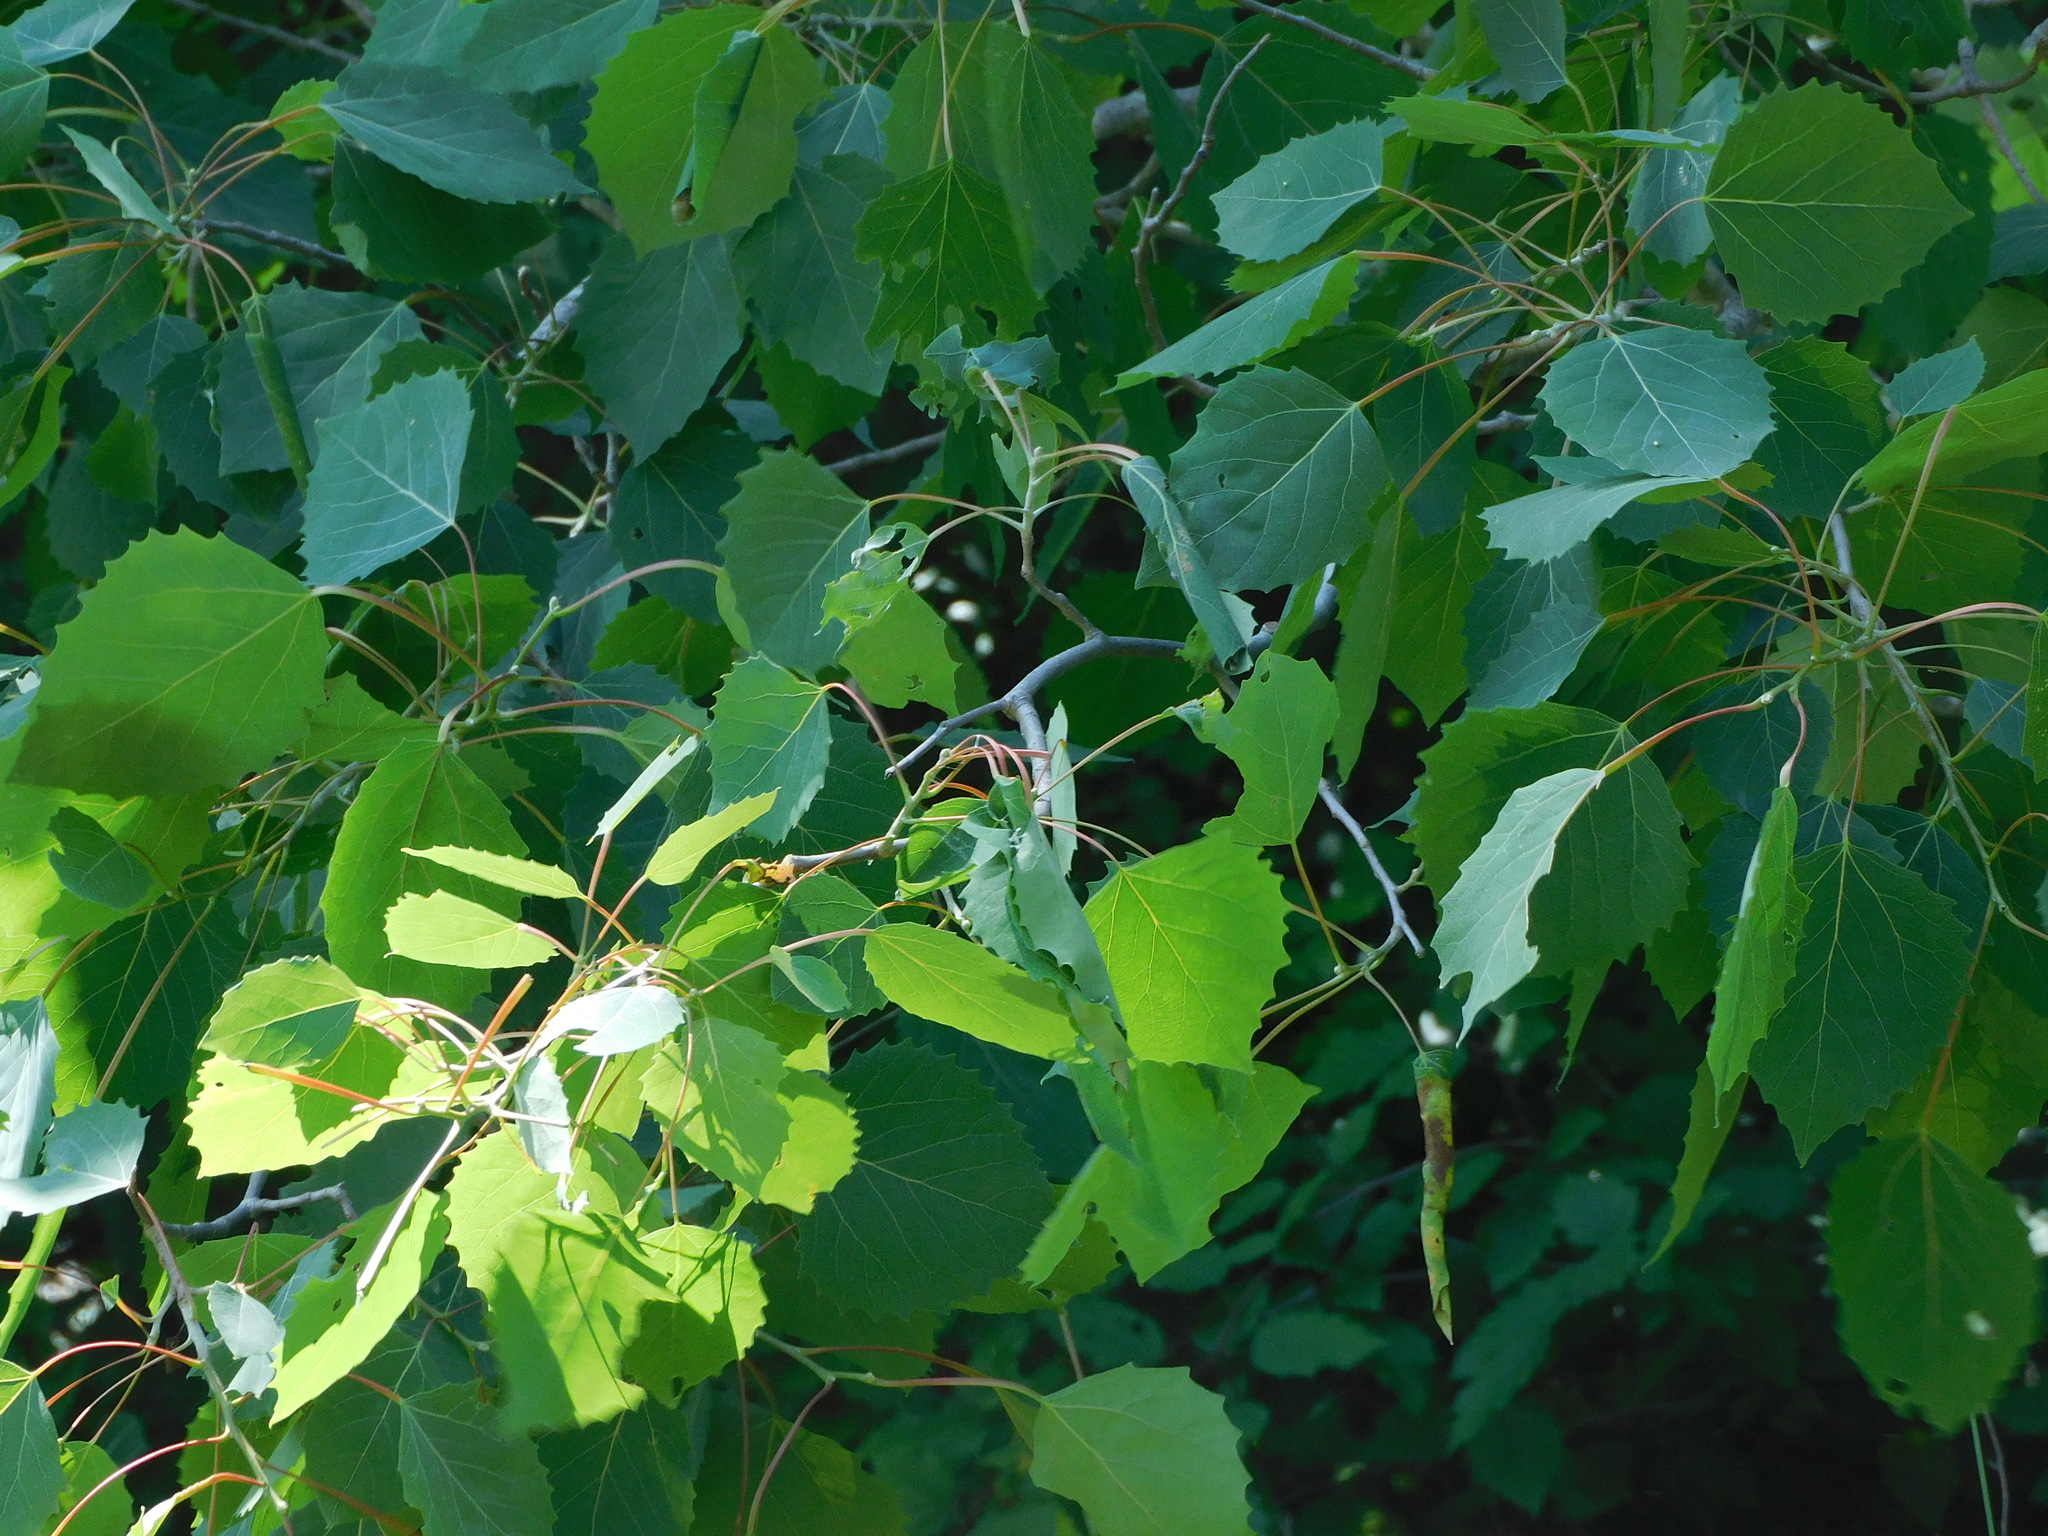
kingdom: Plantae
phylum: Tracheophyta
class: Magnoliopsida
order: Malpighiales
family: Salicaceae
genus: Populus
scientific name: Populus grandidentata
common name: Bigtooth aspen
